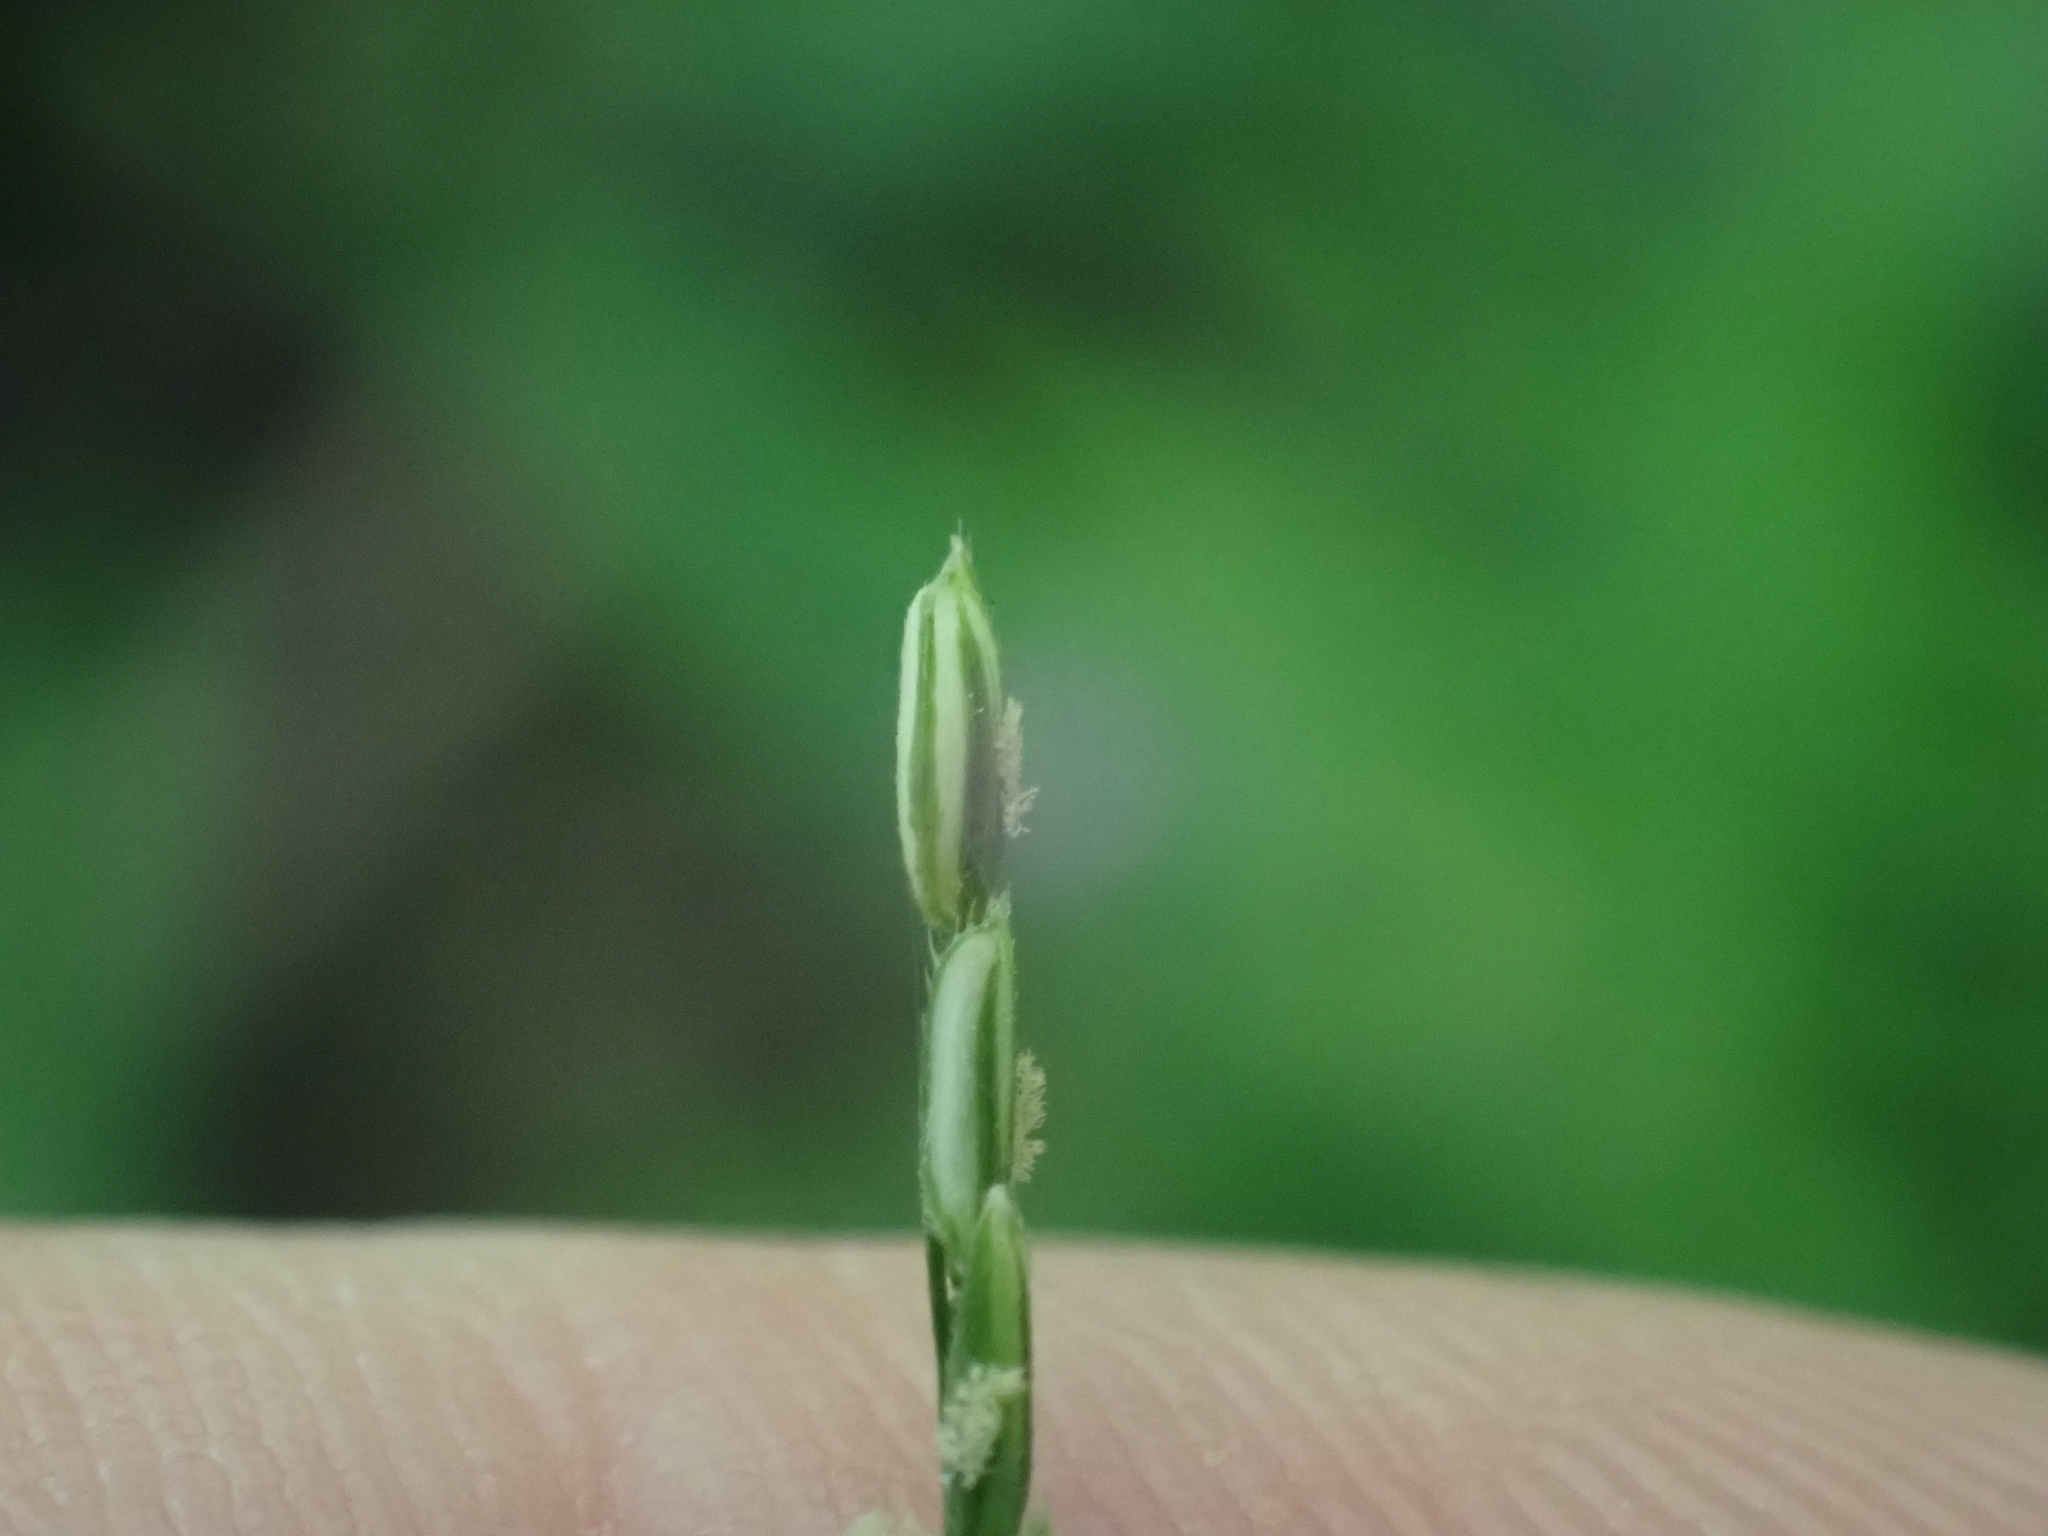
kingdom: Plantae
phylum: Tracheophyta
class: Liliopsida
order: Poales
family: Poaceae
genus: Leersia
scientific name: Leersia virginica
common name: White cutgrass
